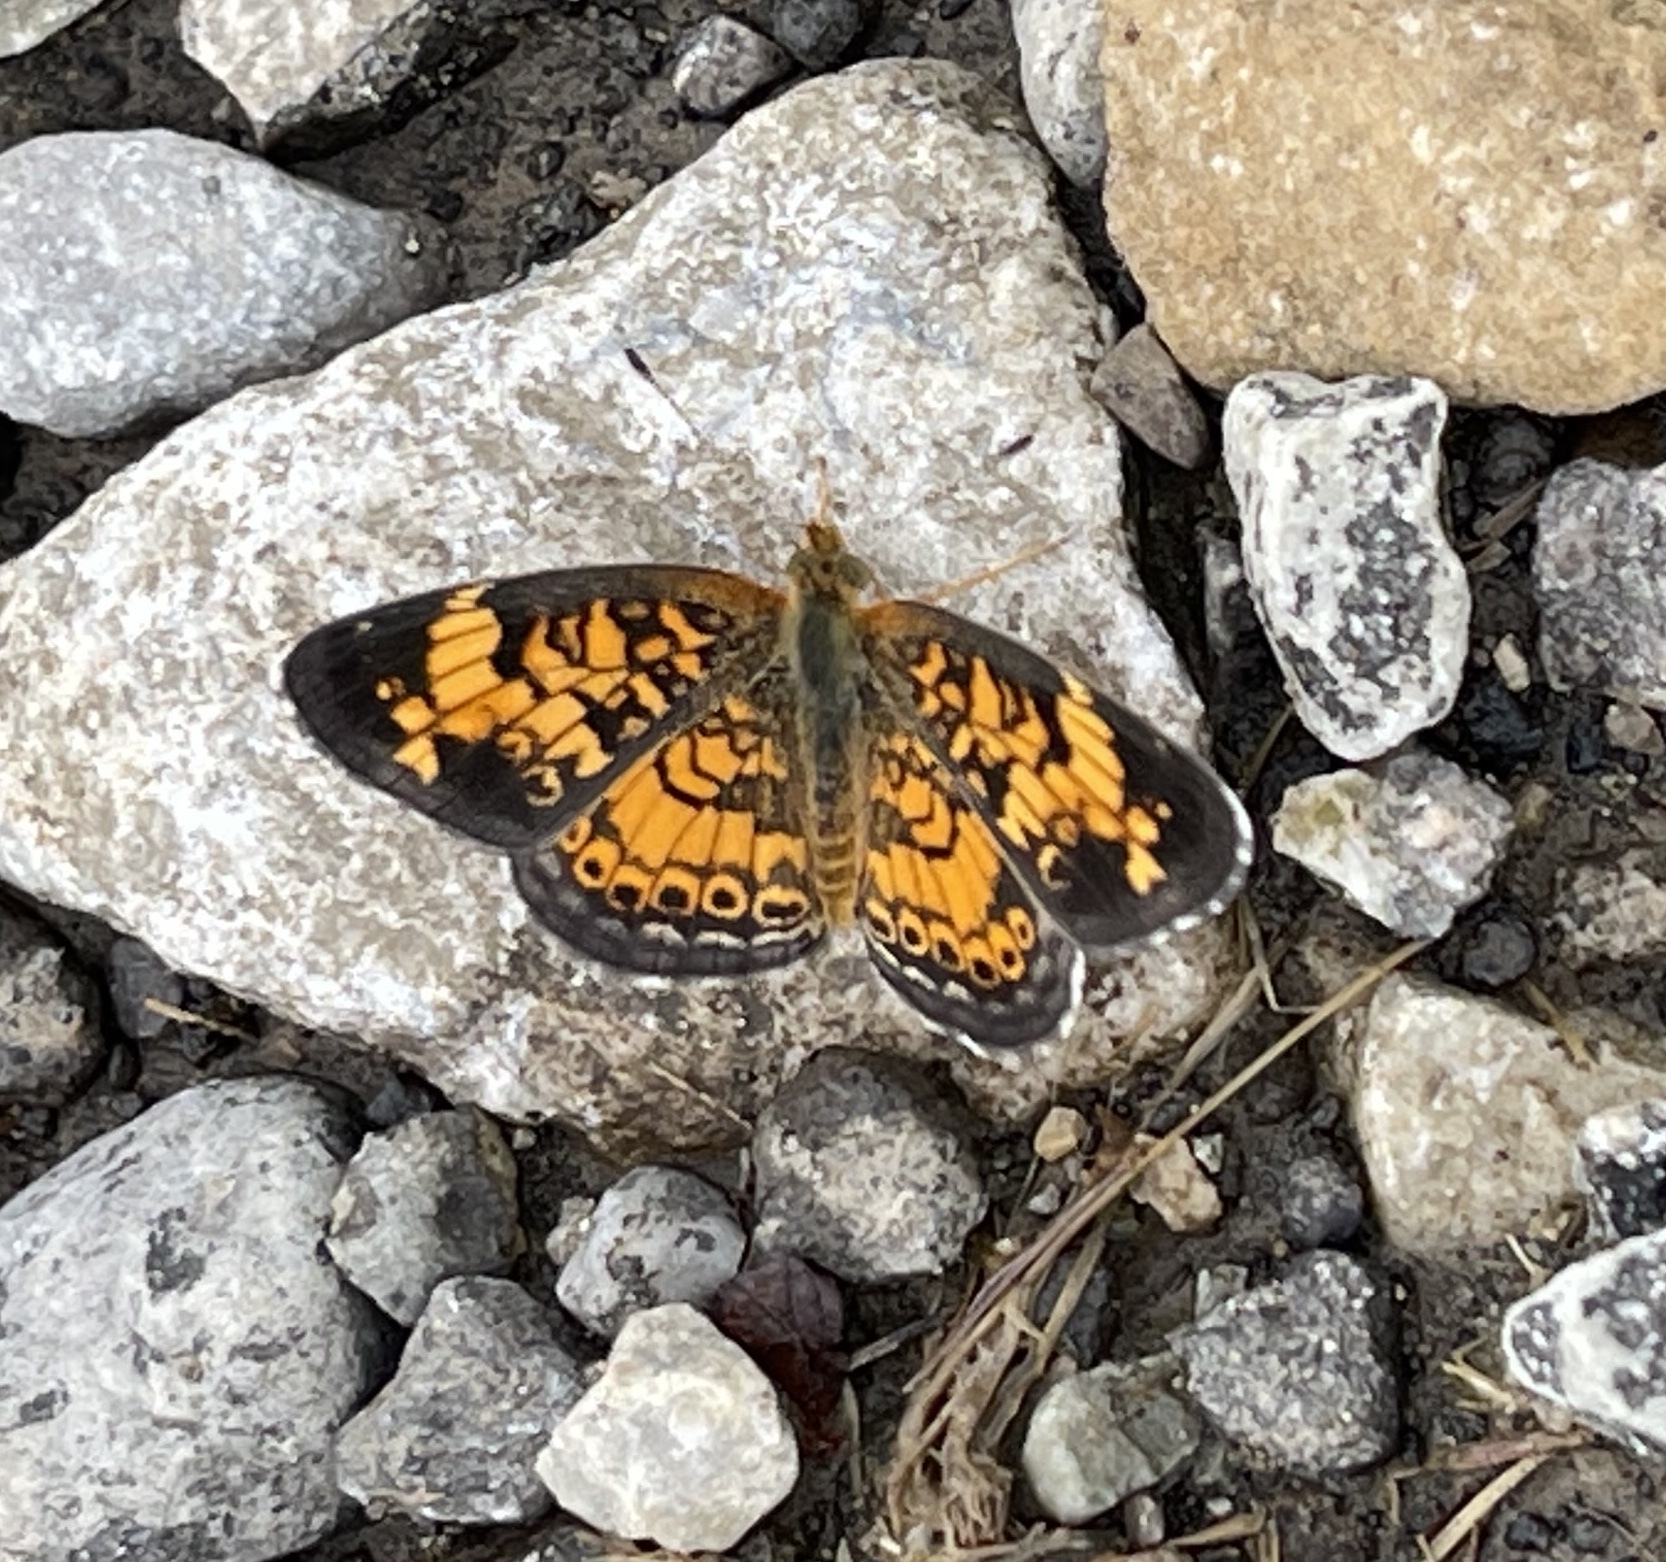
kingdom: Animalia
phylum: Arthropoda
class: Insecta
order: Lepidoptera
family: Nymphalidae
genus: Phyciodes
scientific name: Phyciodes tharos
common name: Pearl crescent
